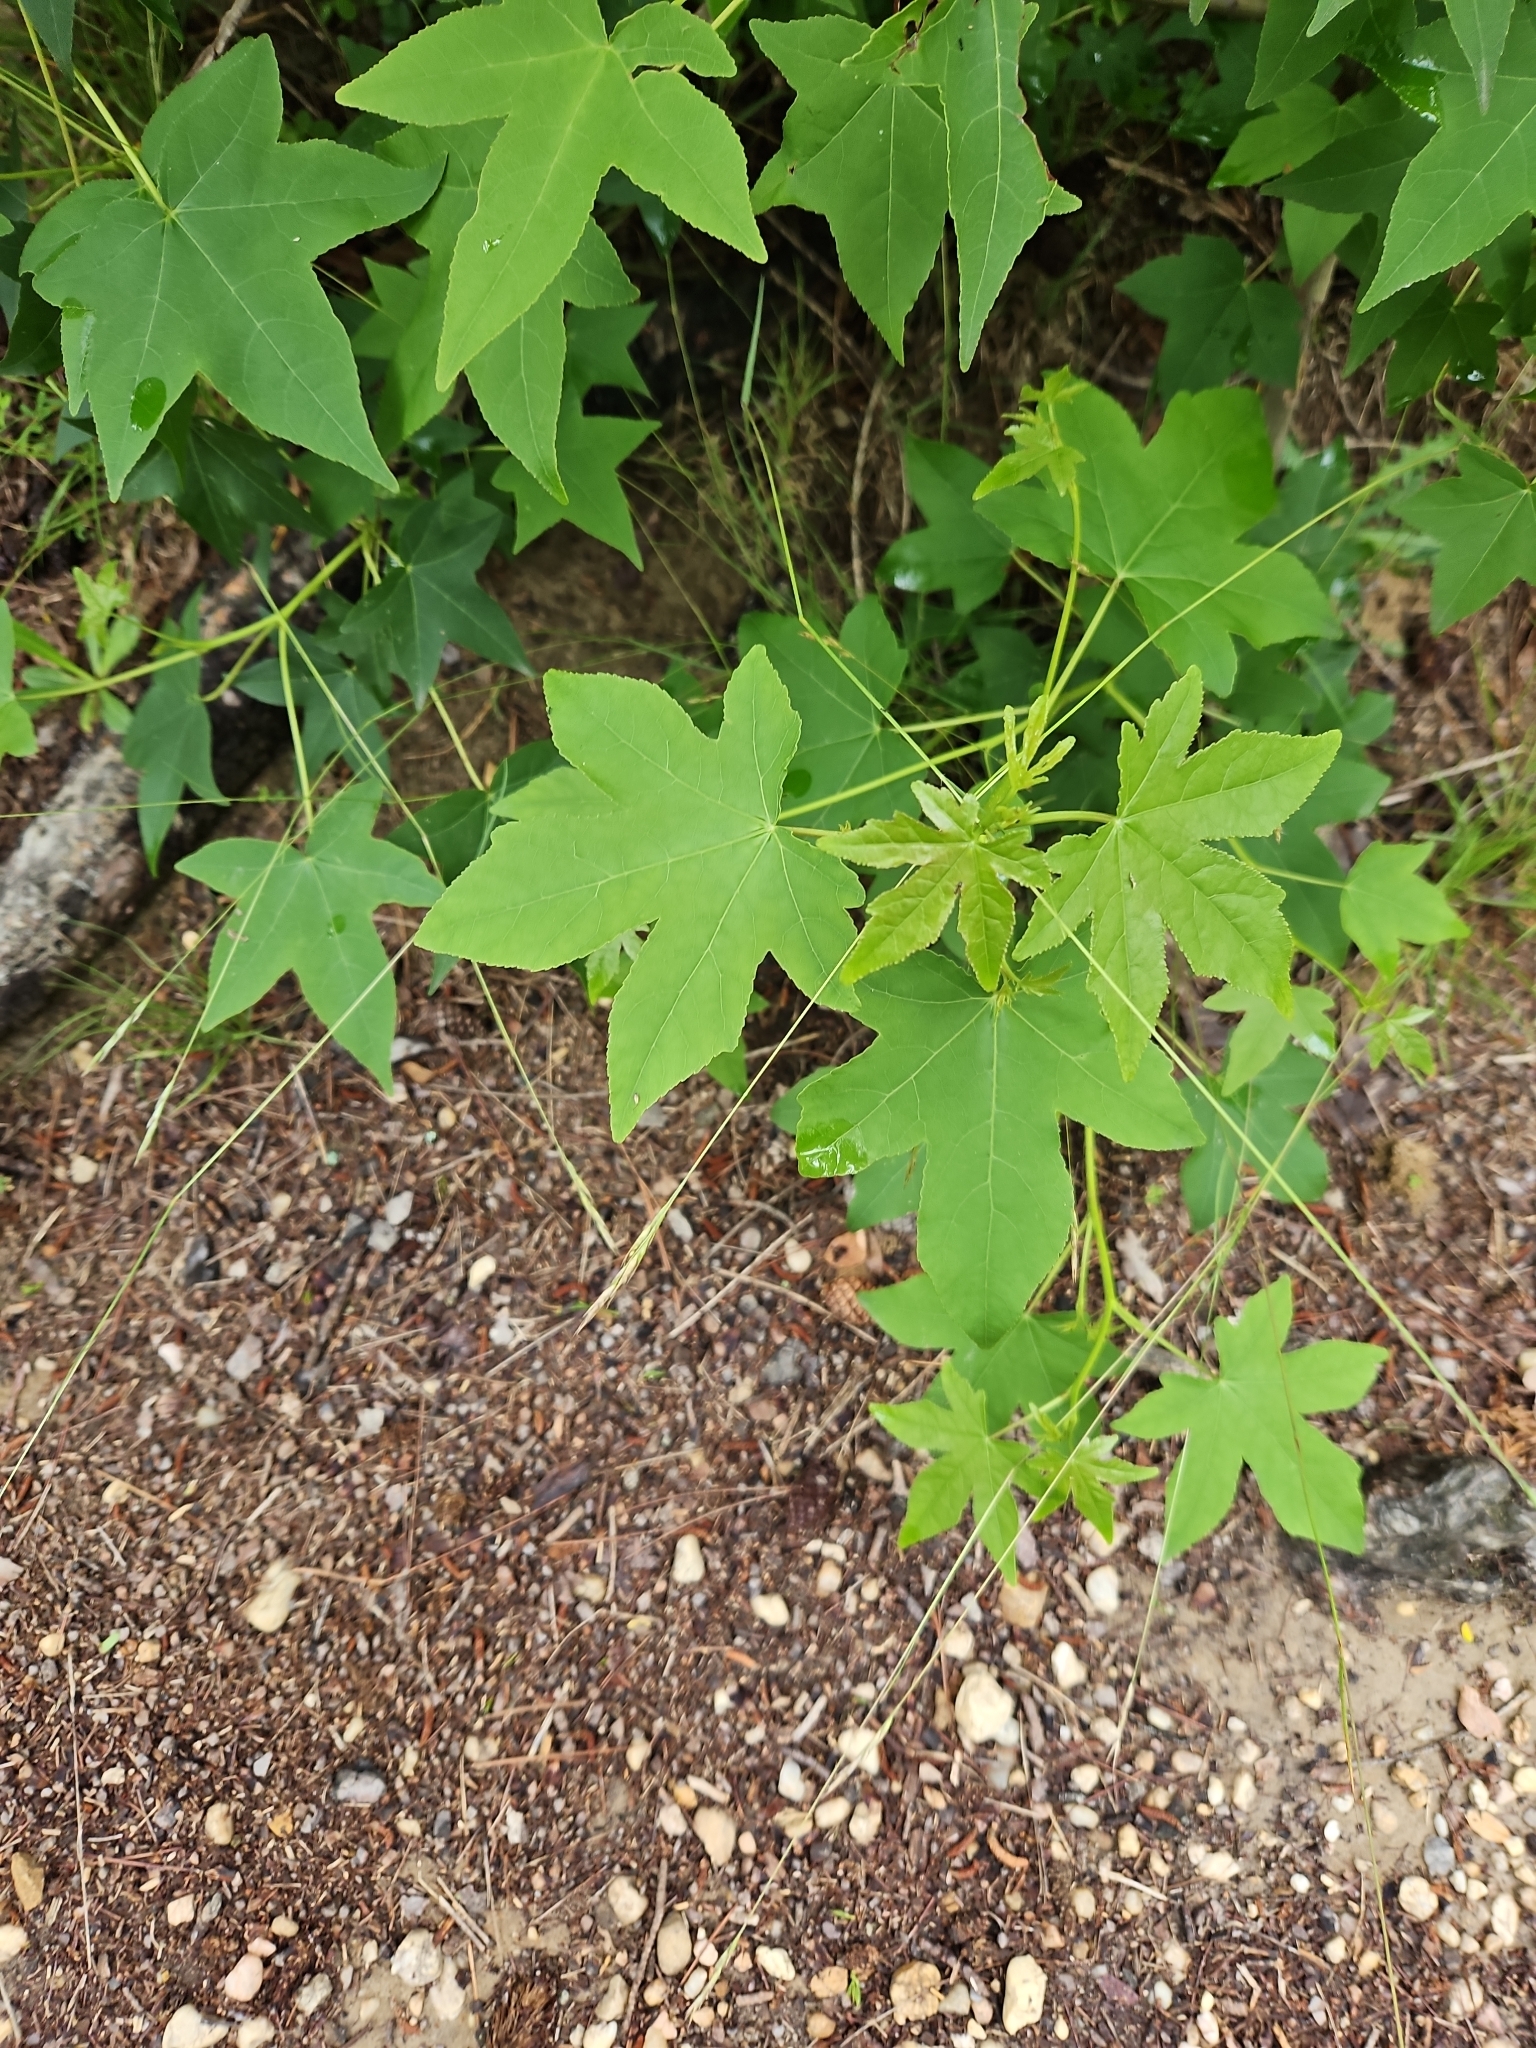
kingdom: Plantae
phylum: Tracheophyta
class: Magnoliopsida
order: Saxifragales
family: Altingiaceae
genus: Liquidambar
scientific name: Liquidambar styraciflua
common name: Sweet gum
